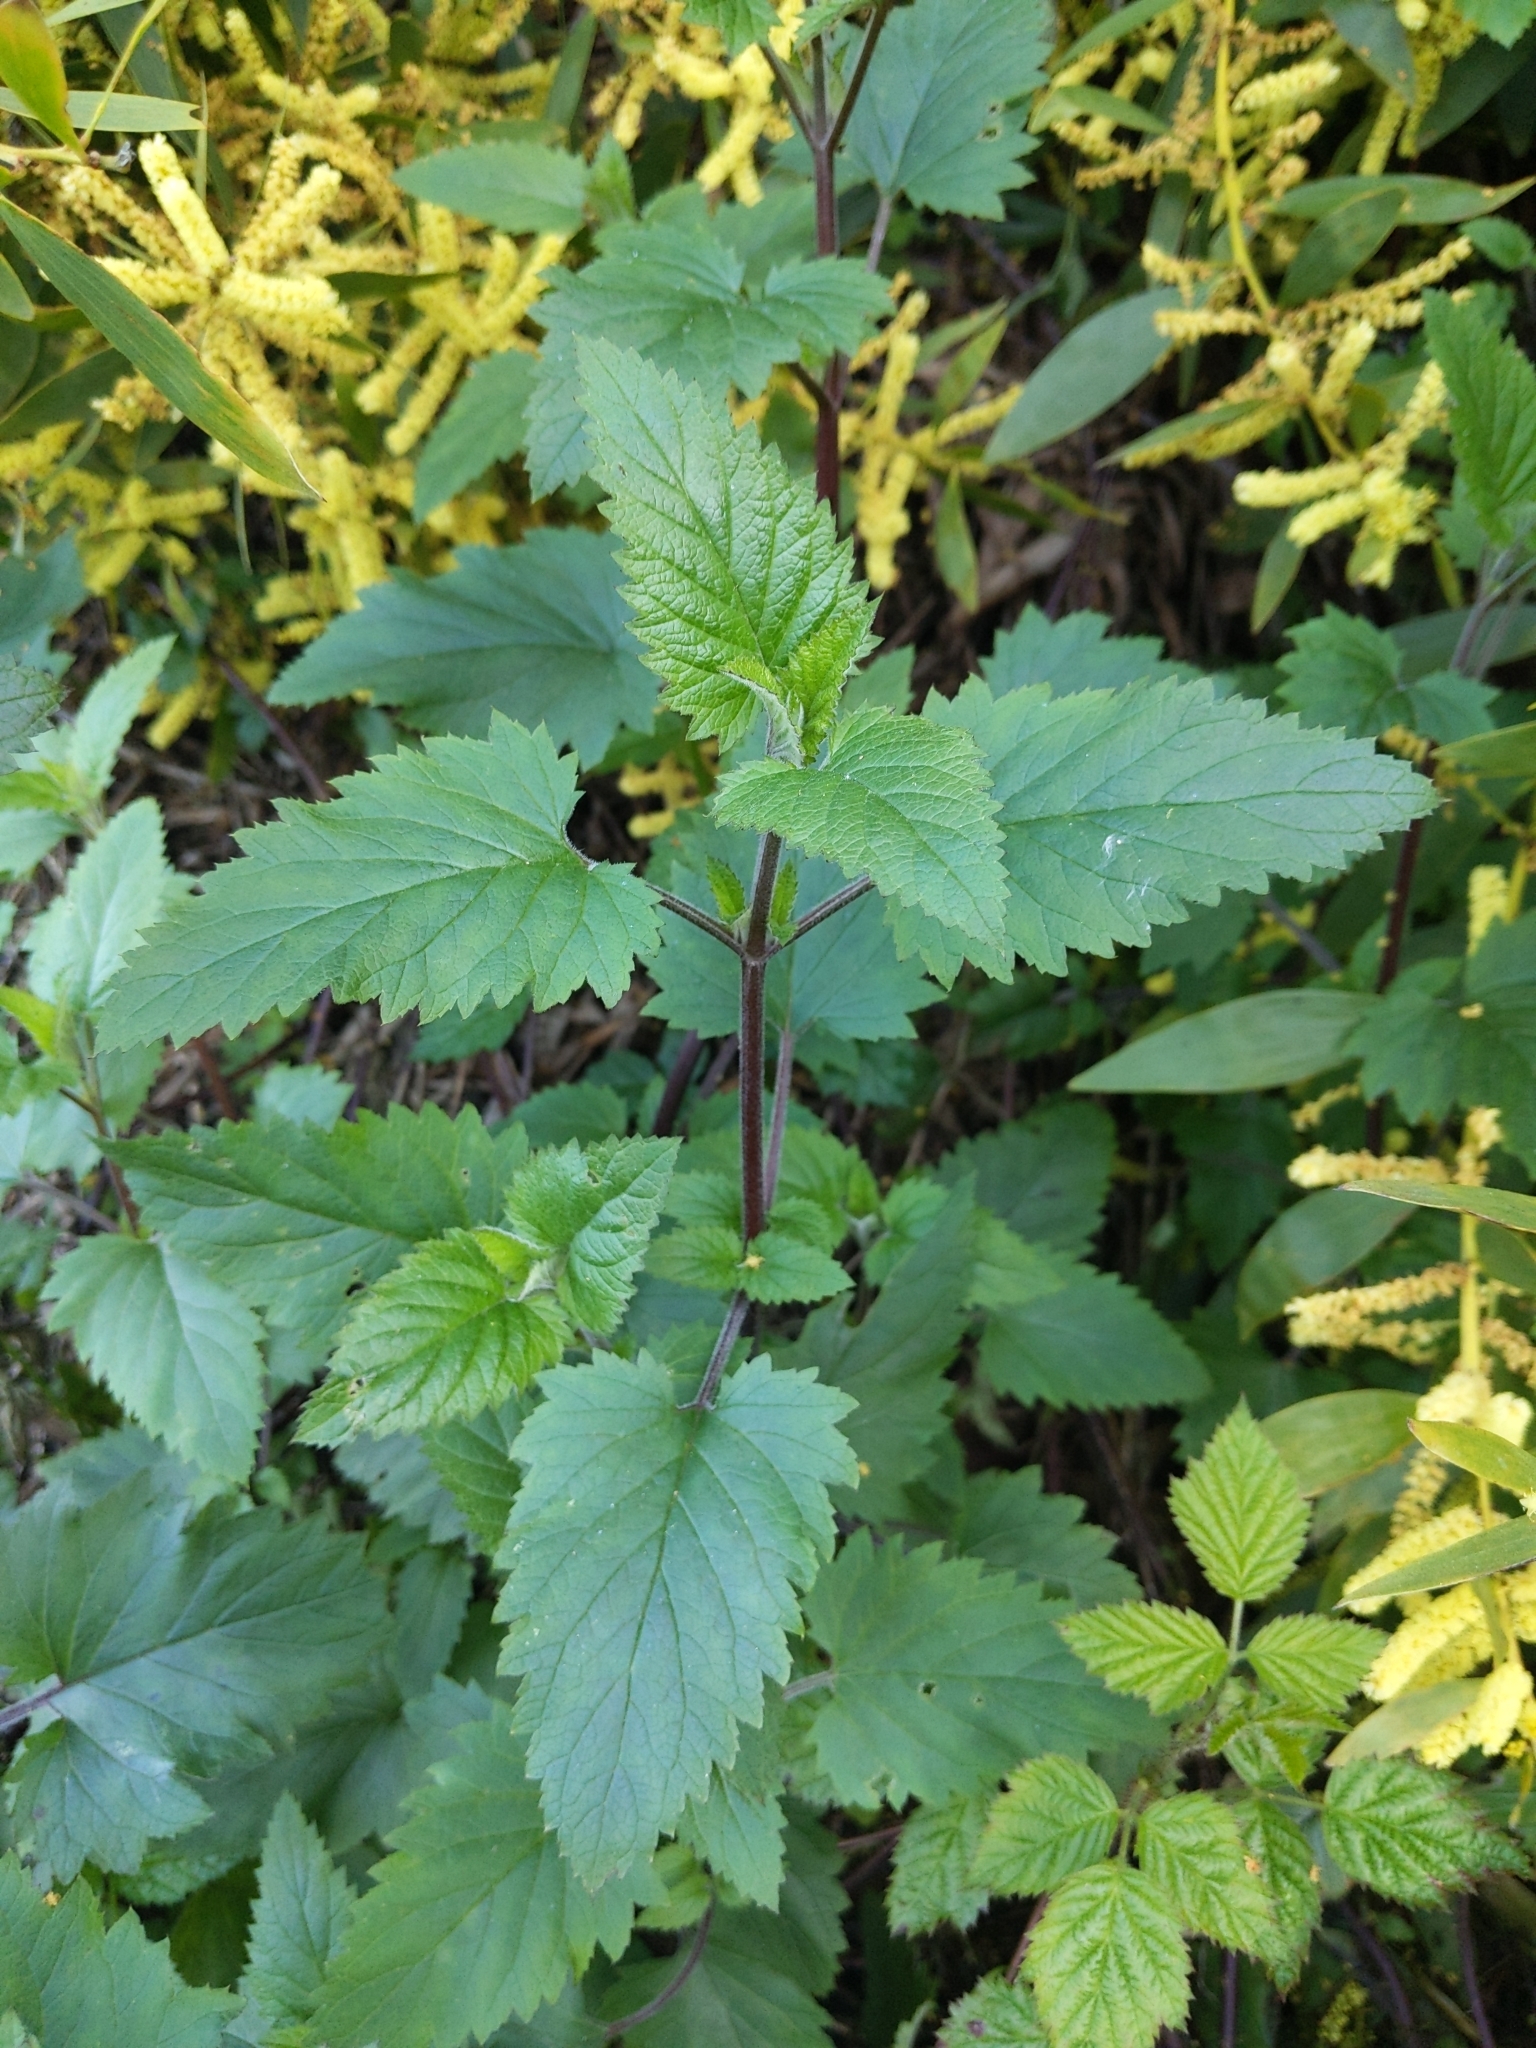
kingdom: Plantae
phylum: Tracheophyta
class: Magnoliopsida
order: Lamiales
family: Scrophulariaceae
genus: Scrophularia
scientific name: Scrophularia californica
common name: California figwort
